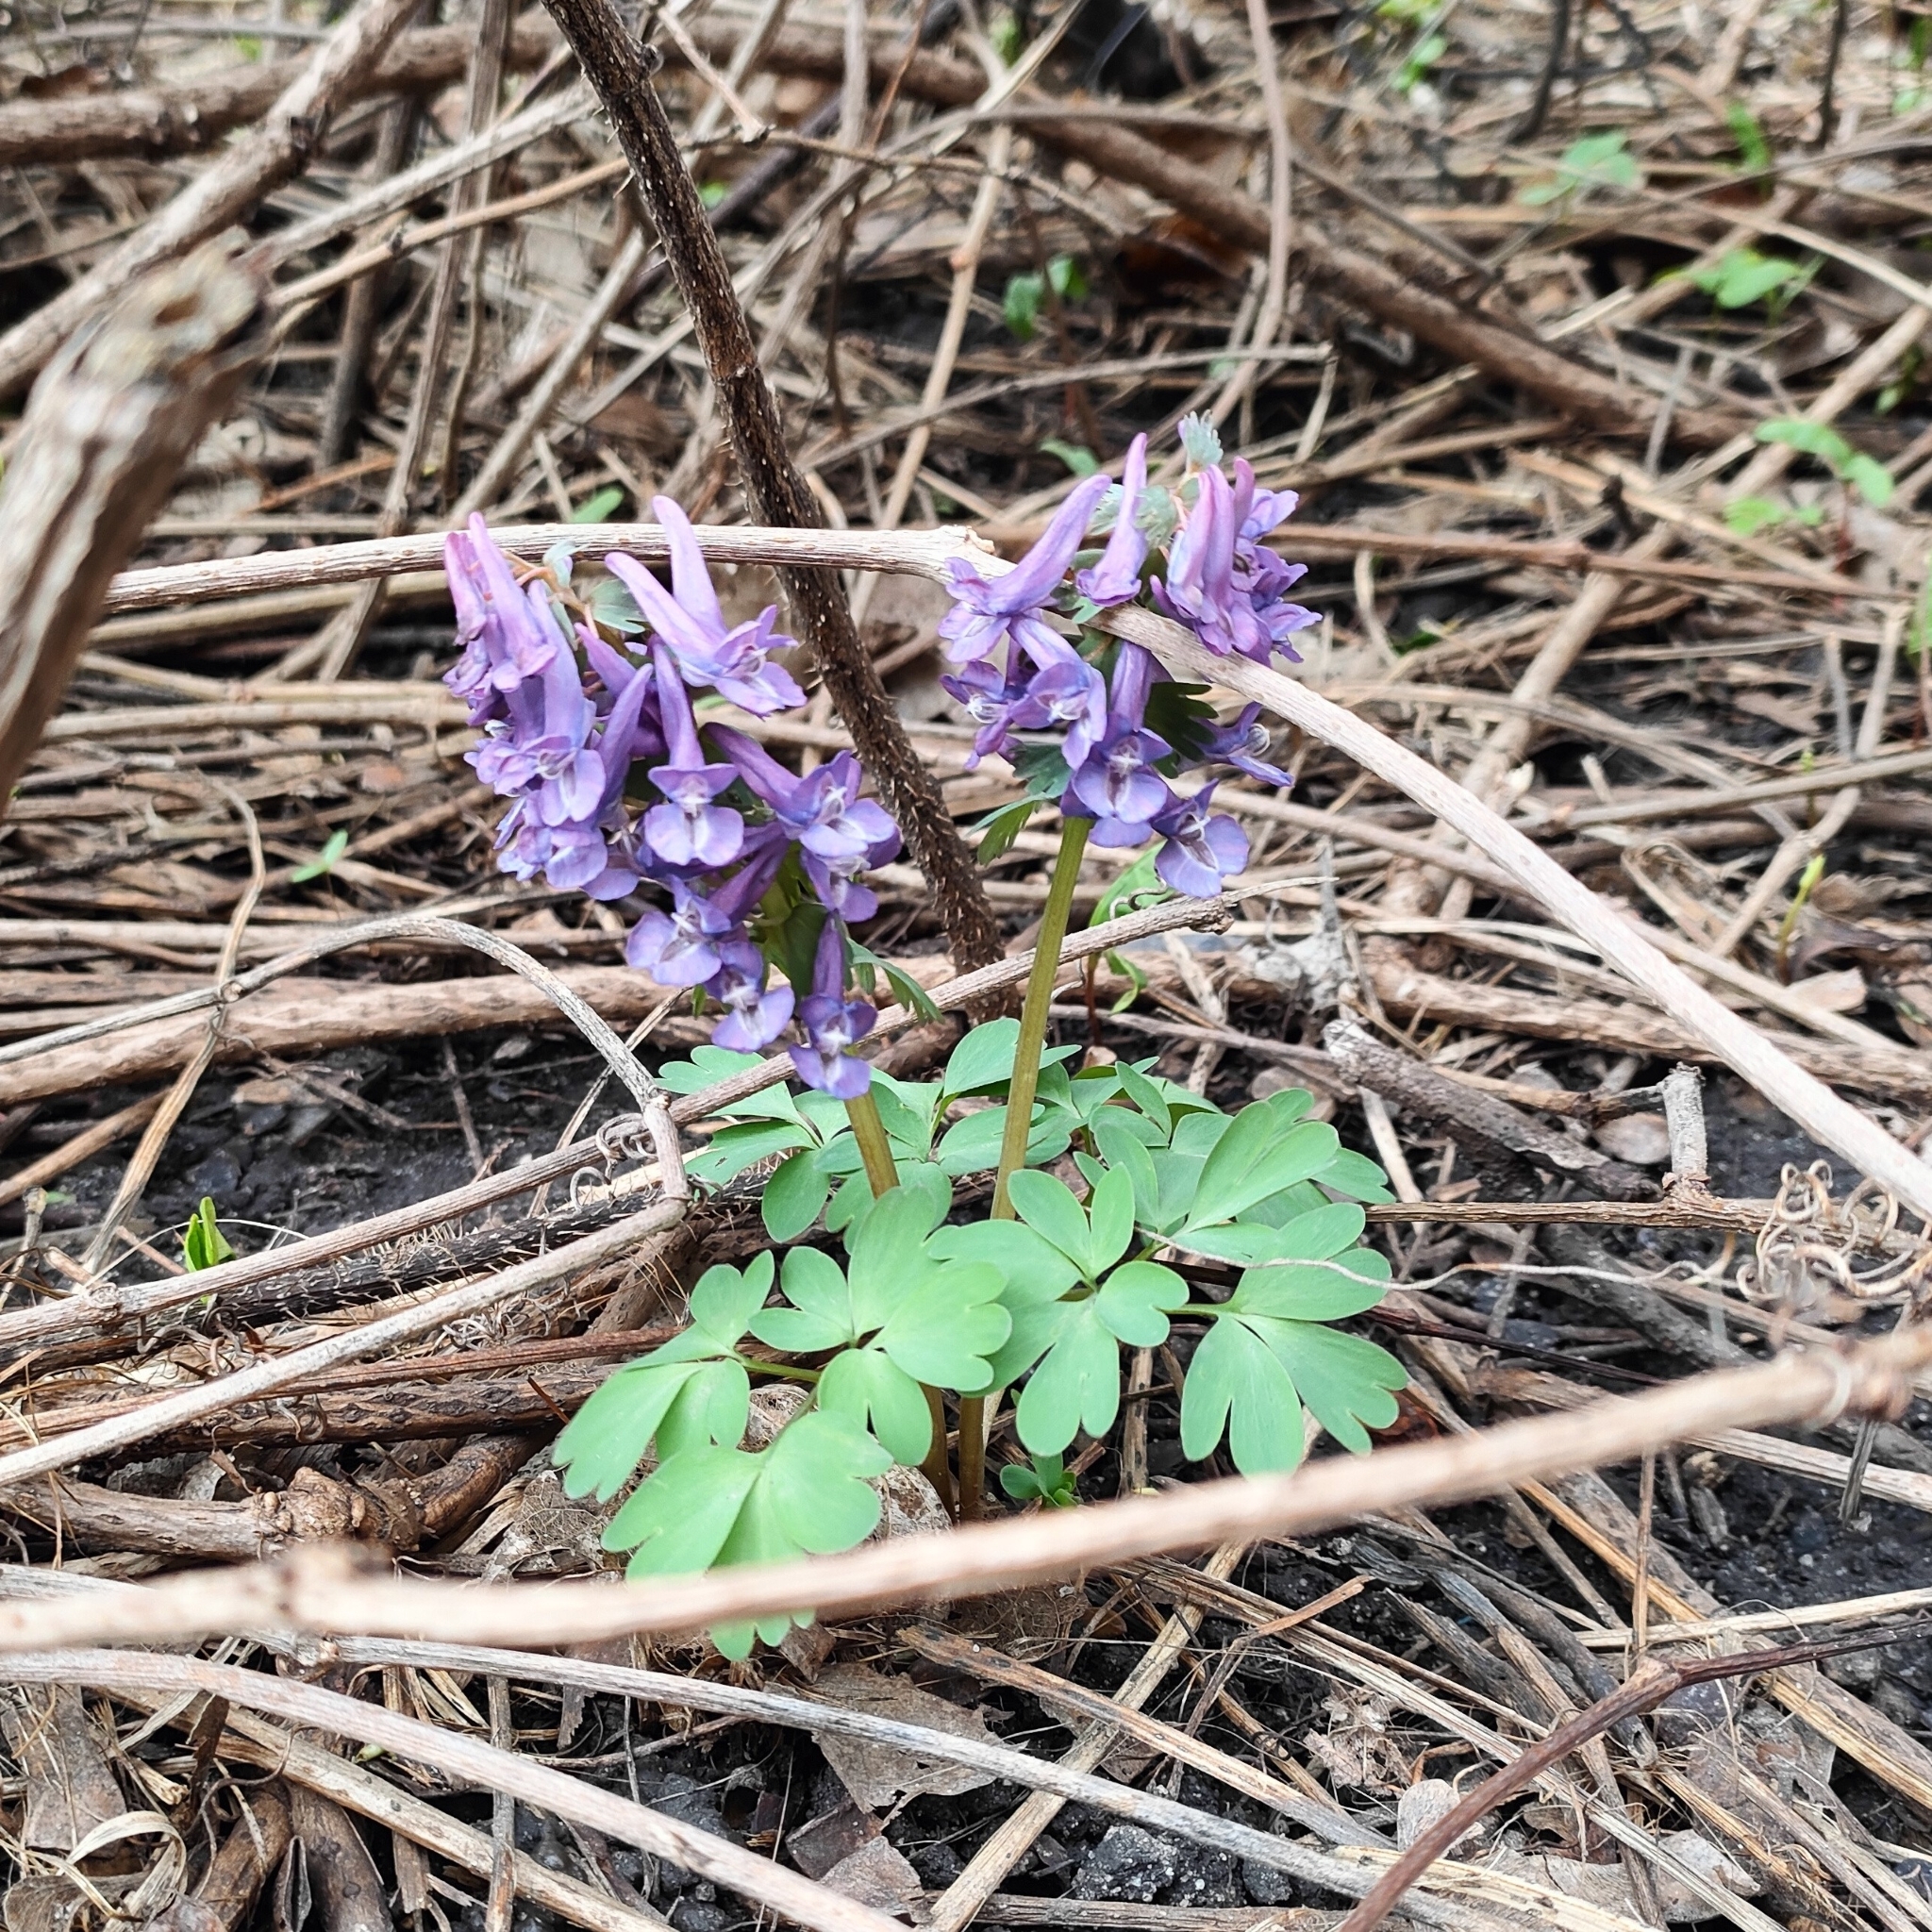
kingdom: Plantae
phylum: Tracheophyta
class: Magnoliopsida
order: Ranunculales
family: Papaveraceae
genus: Corydalis
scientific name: Corydalis solida
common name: Bird-in-a-bush
